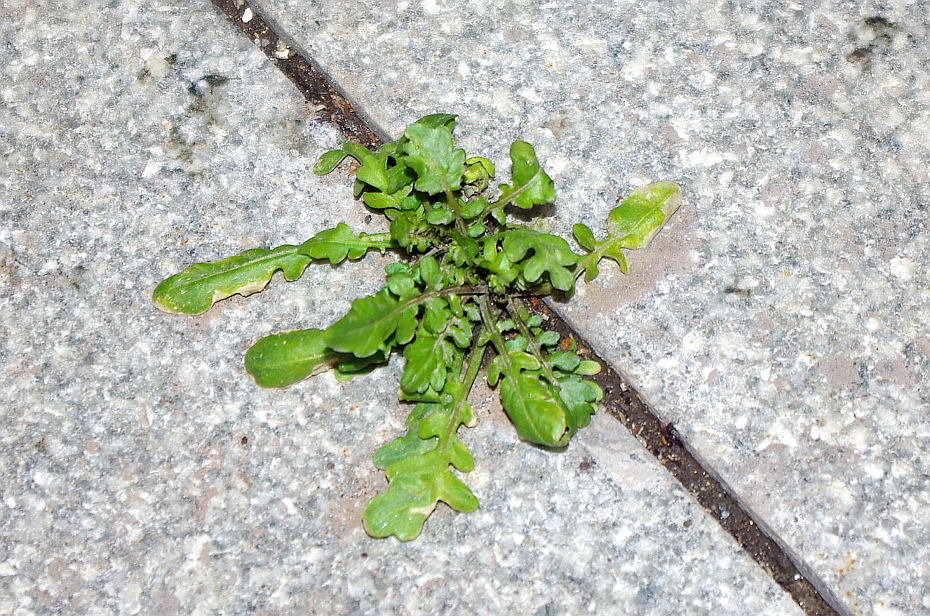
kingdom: Plantae
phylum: Tracheophyta
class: Magnoliopsida
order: Brassicales
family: Brassicaceae
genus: Rorippa
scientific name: Rorippa palustris
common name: Marsh yellow-cress
